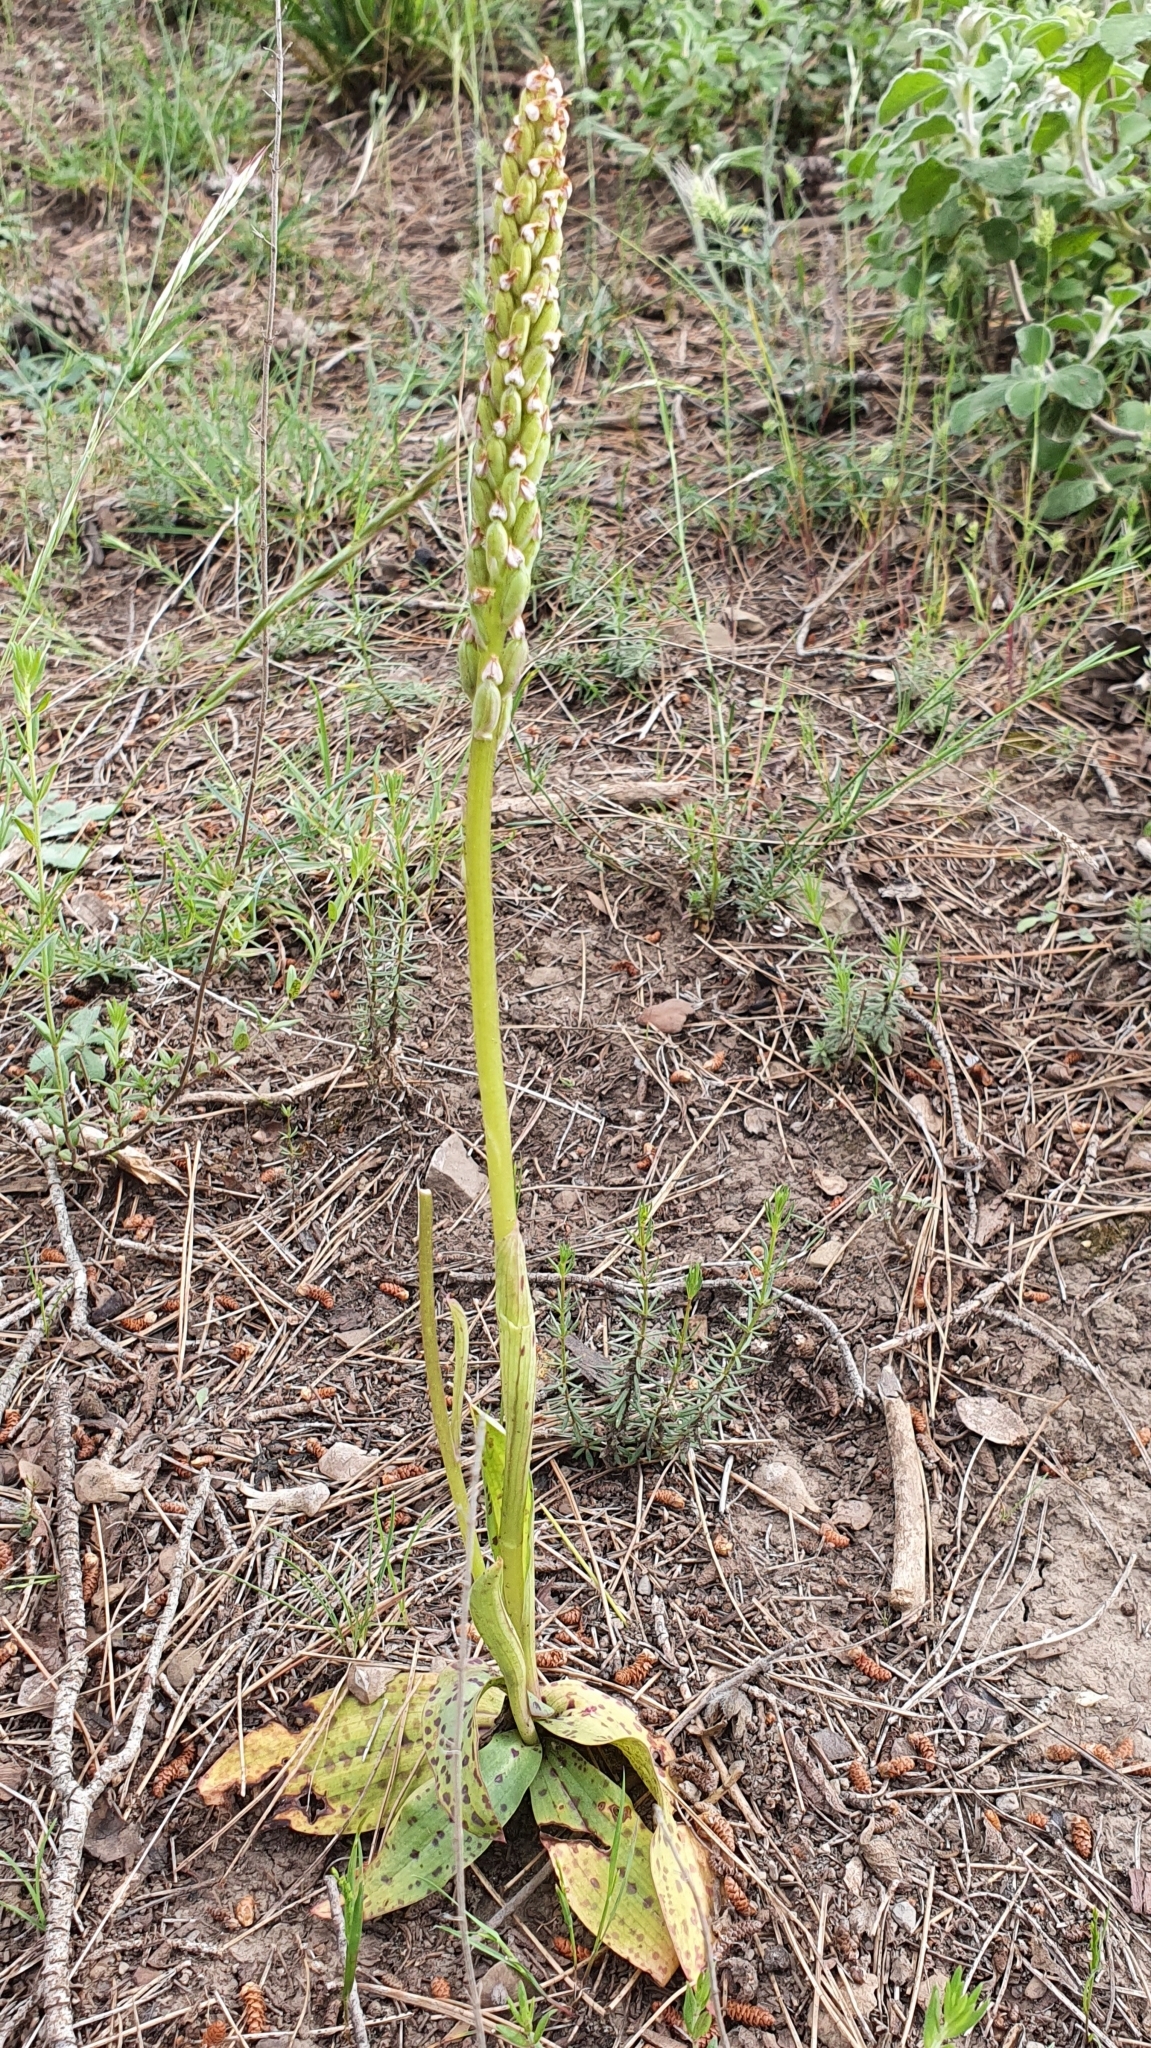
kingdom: Plantae
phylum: Tracheophyta
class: Liliopsida
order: Asparagales
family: Orchidaceae
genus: Neotinea
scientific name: Neotinea maculata
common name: Dense-flowered orchid
